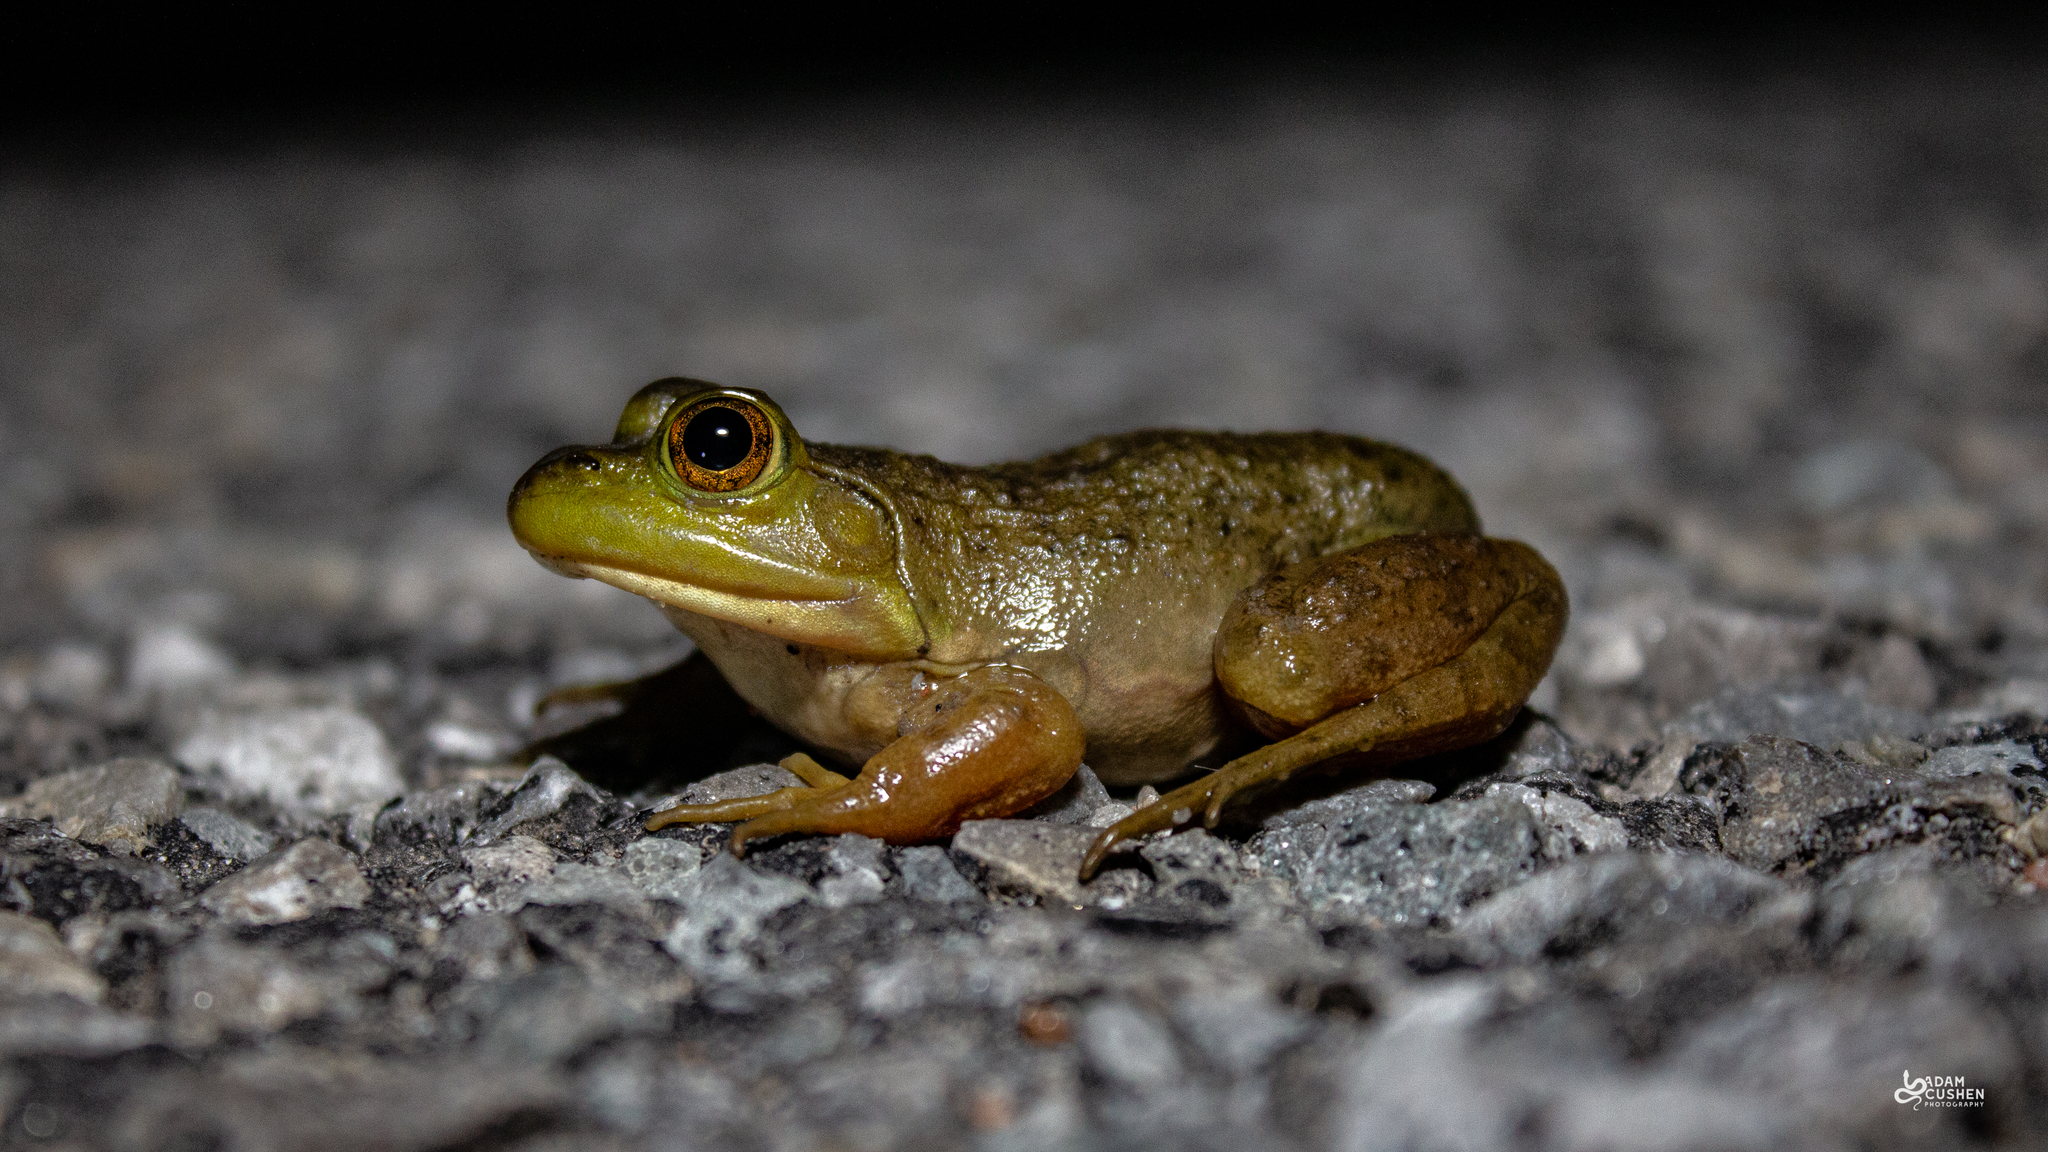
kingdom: Animalia
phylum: Chordata
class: Amphibia
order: Anura
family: Ranidae
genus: Lithobates
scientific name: Lithobates catesbeianus
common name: American bullfrog
